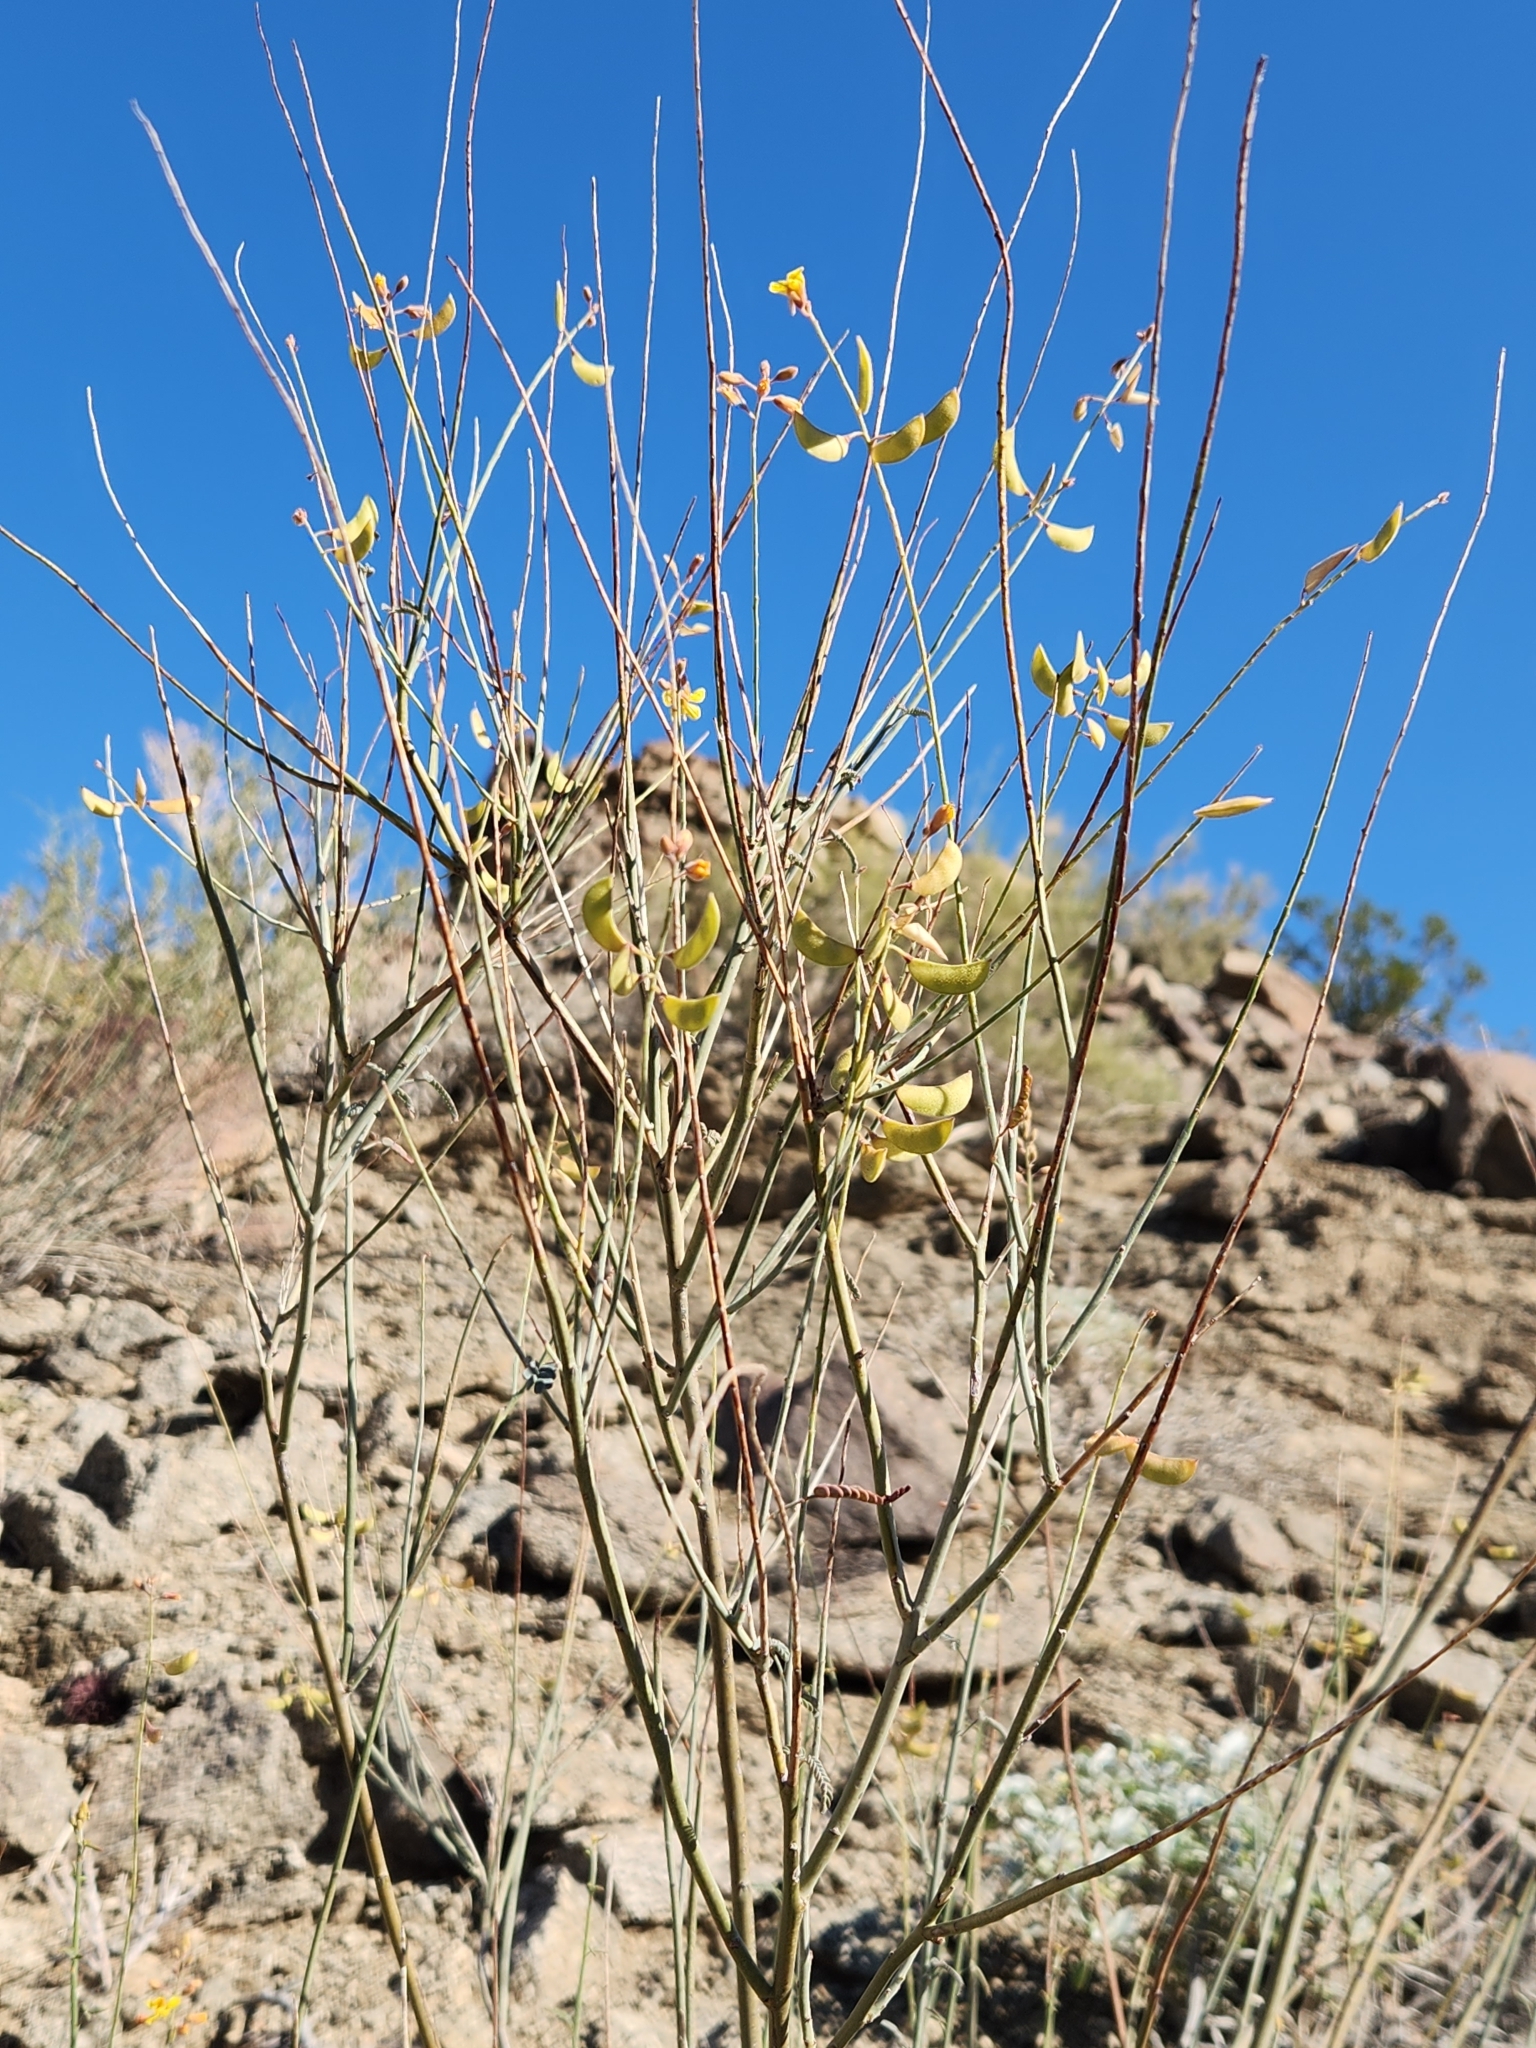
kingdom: Plantae
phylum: Tracheophyta
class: Magnoliopsida
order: Fabales
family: Fabaceae
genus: Hoffmannseggia
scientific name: Hoffmannseggia microphylla
